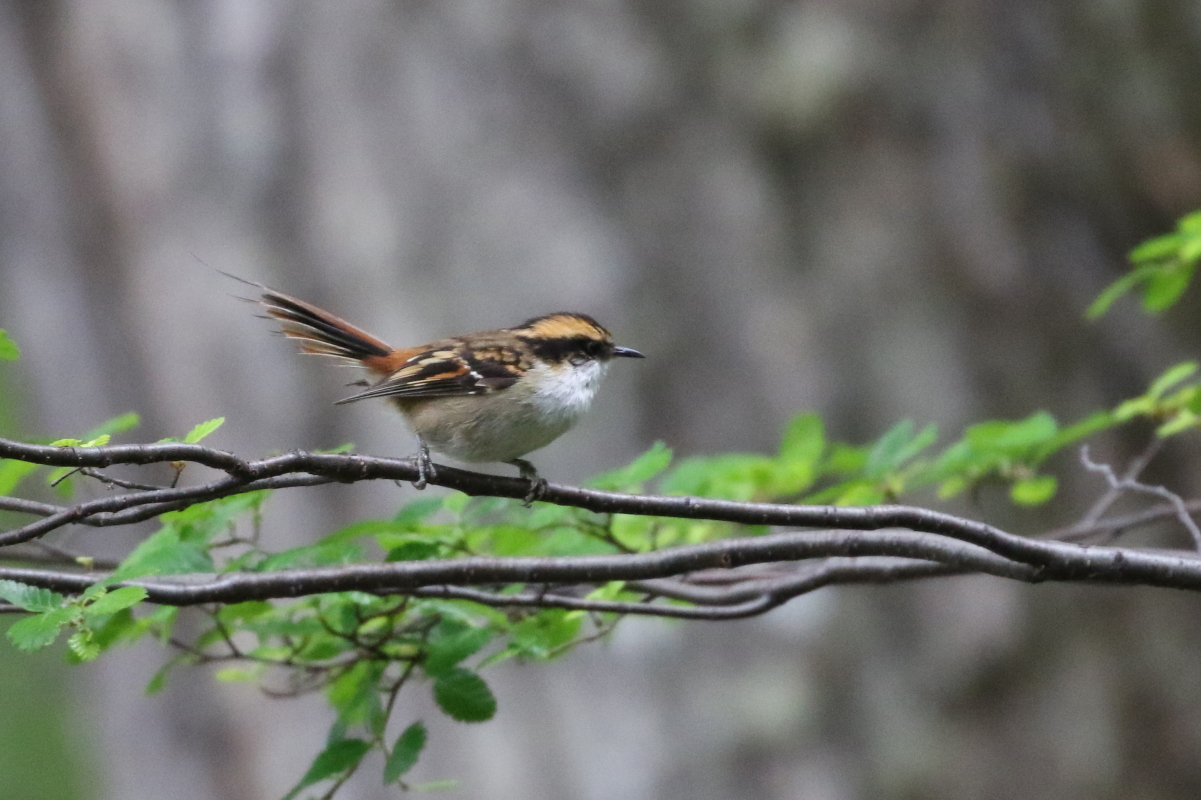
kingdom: Animalia
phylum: Chordata
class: Aves
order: Passeriformes
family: Furnariidae
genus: Aphrastura
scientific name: Aphrastura spinicauda
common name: Thorn-tailed rayadito
